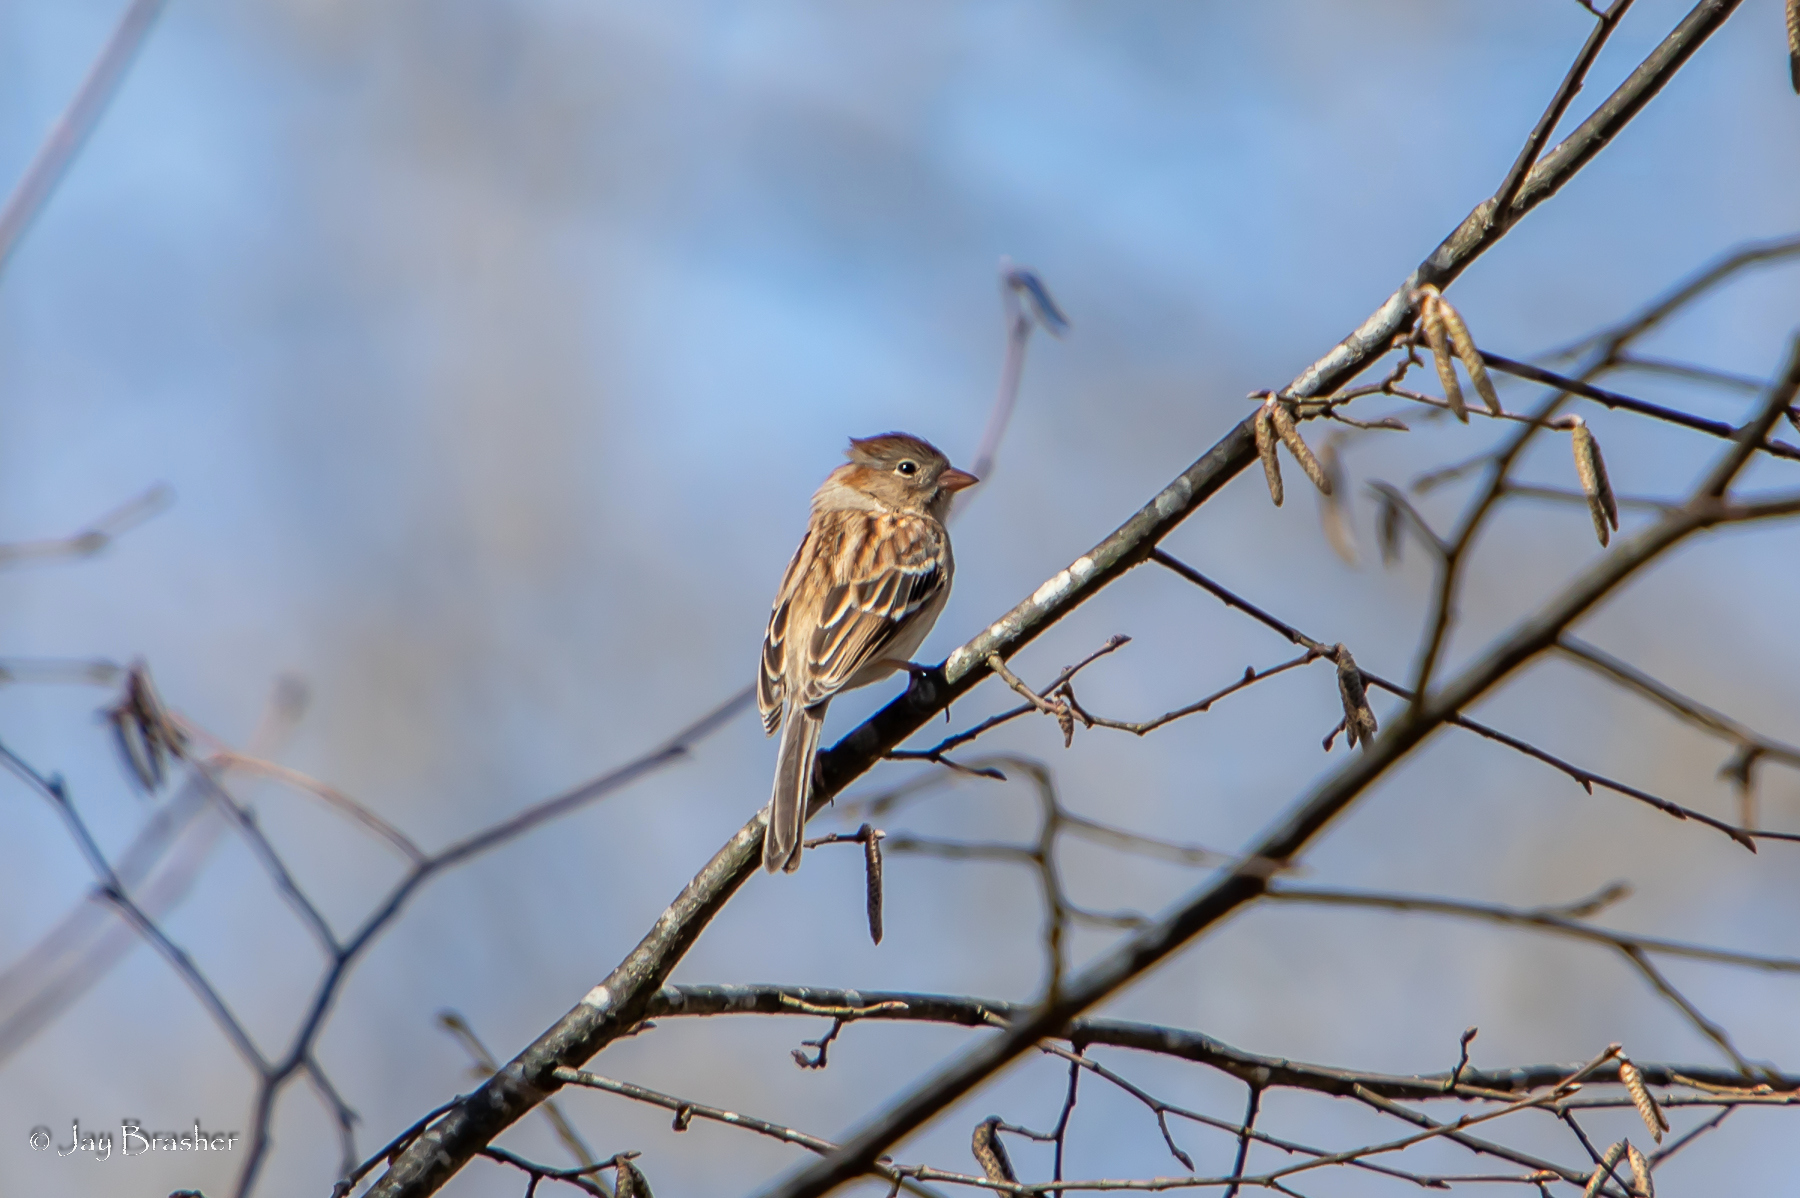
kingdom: Animalia
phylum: Chordata
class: Aves
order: Passeriformes
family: Passerellidae
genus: Spizella
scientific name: Spizella pusilla
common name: Field sparrow
